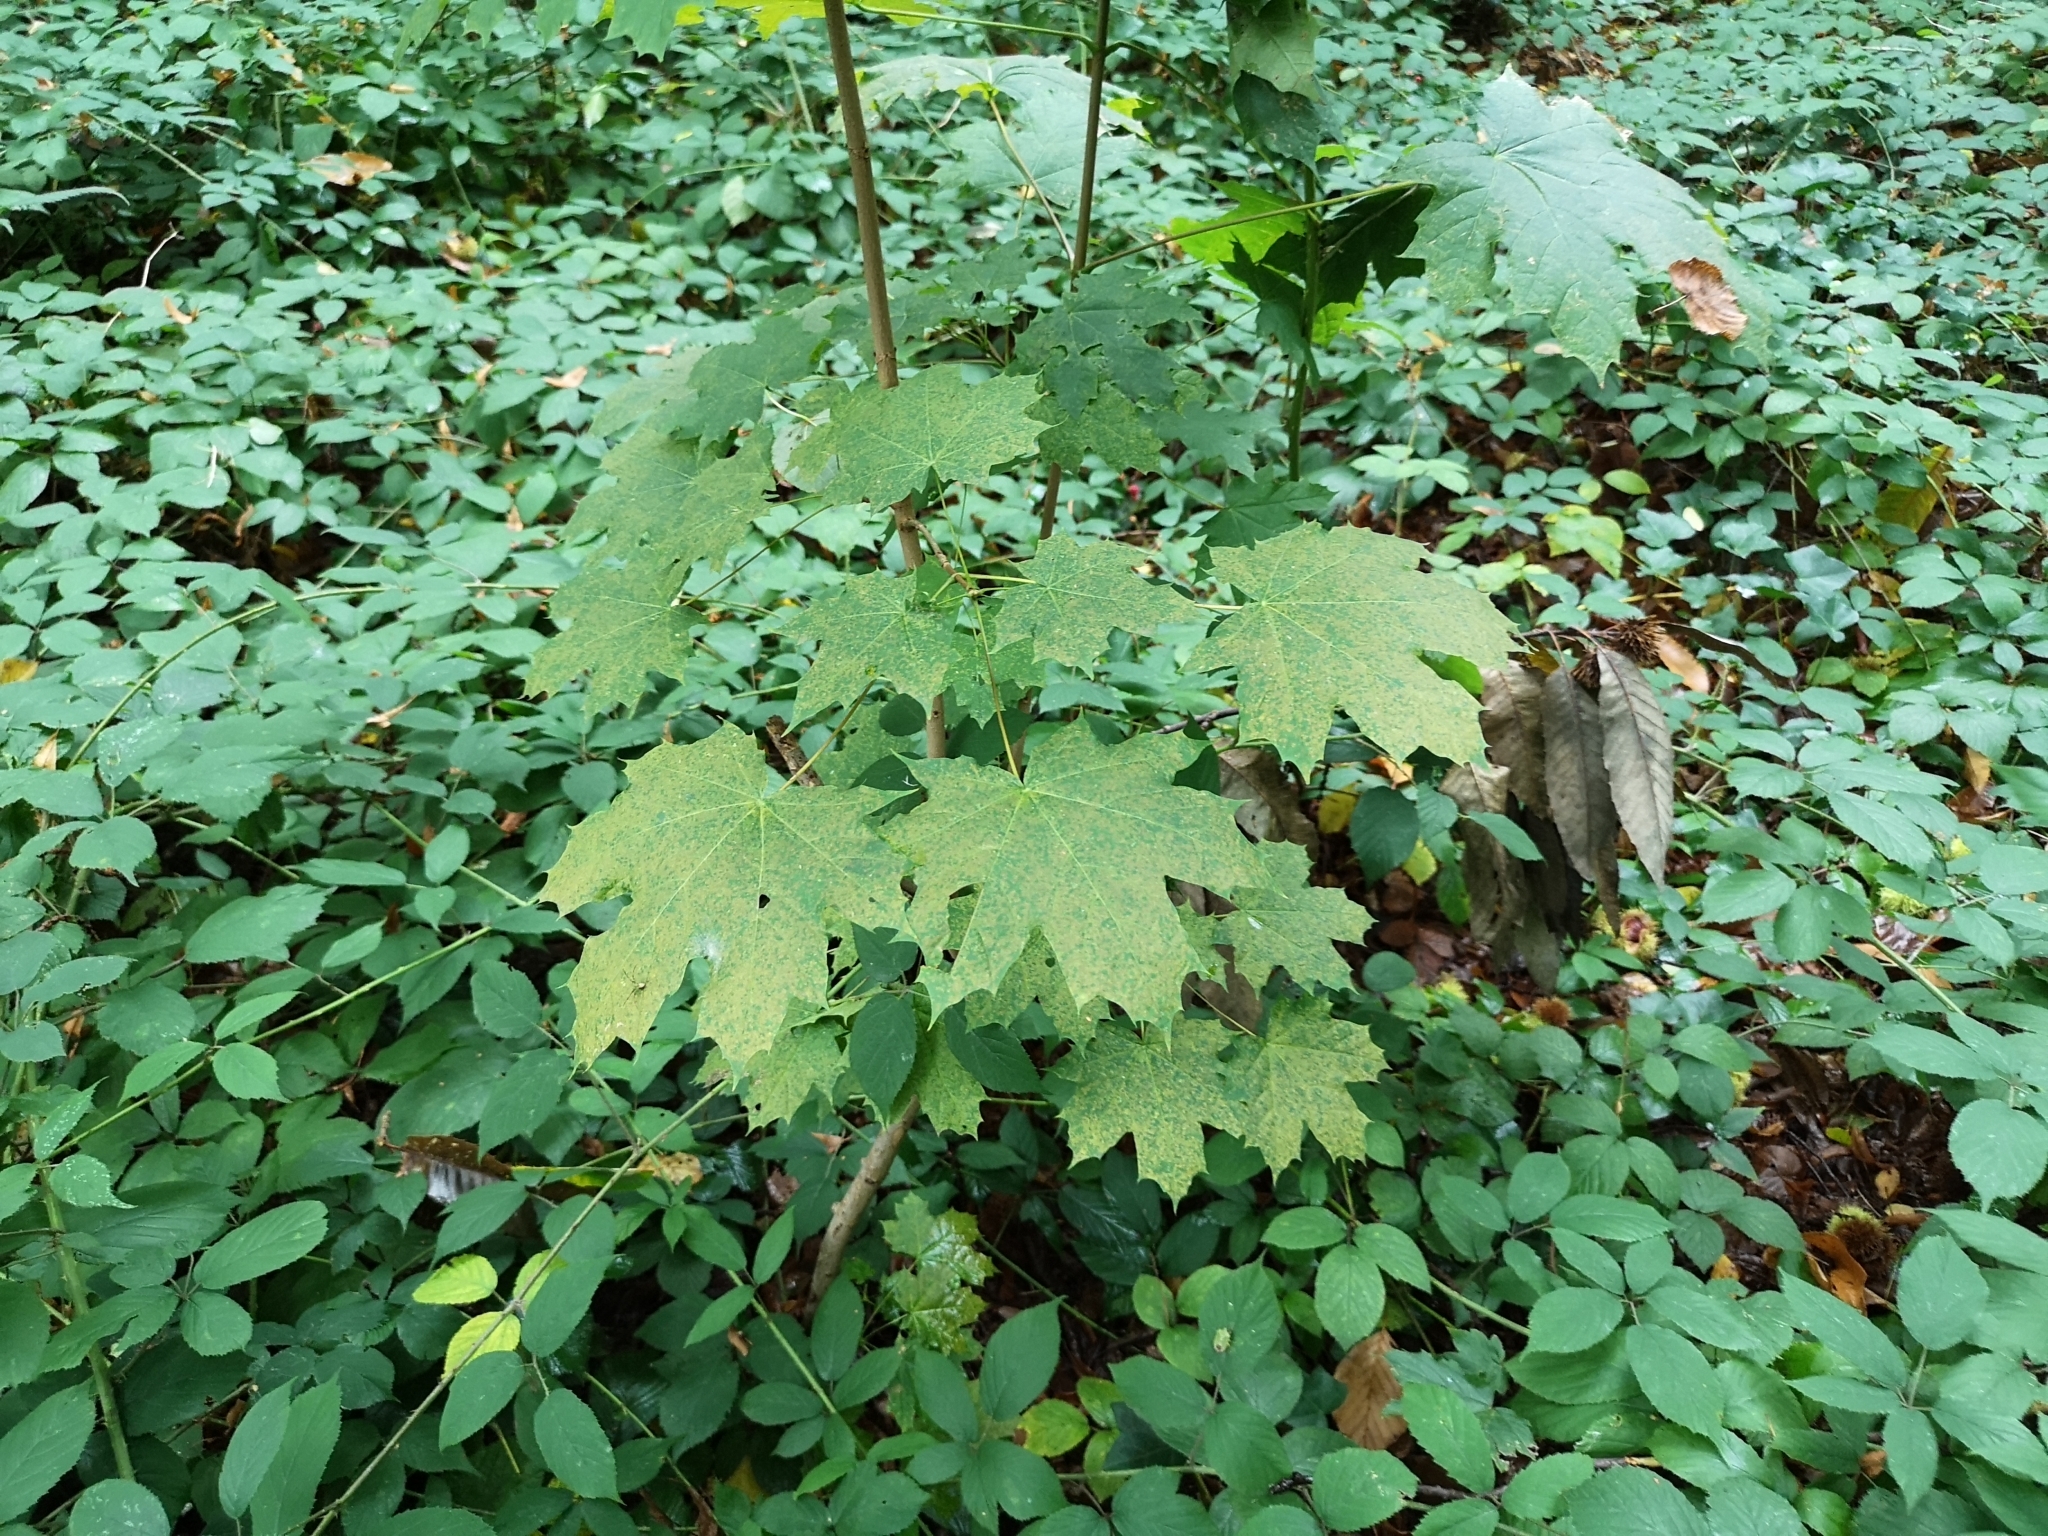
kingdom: Plantae
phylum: Tracheophyta
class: Magnoliopsida
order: Sapindales
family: Sapindaceae
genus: Acer
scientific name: Acer platanoides
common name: Norway maple
